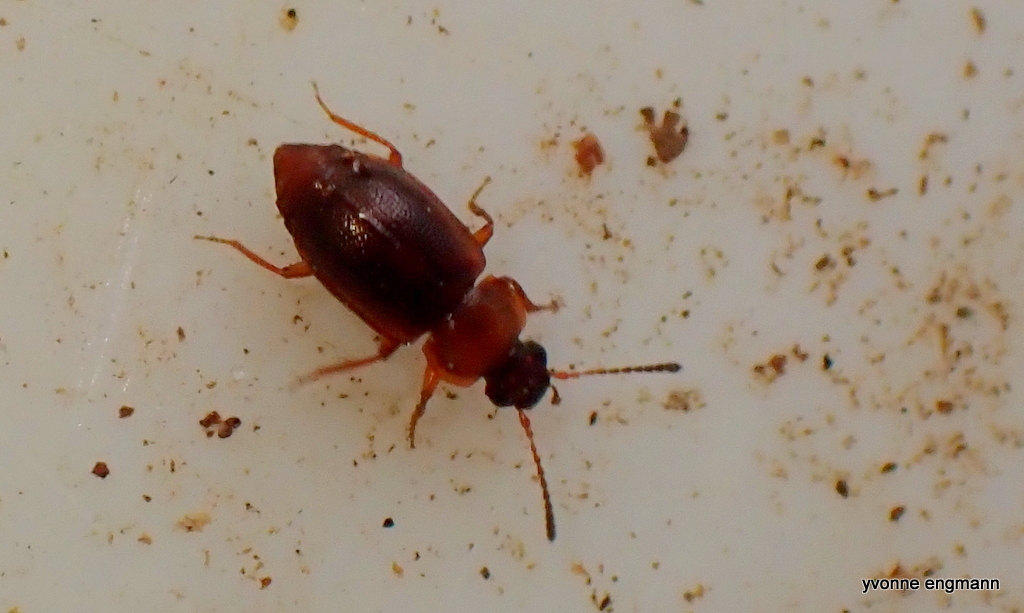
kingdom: Animalia
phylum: Arthropoda
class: Insecta
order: Coleoptera
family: Staphylinidae
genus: Anthobium
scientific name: Anthobium atrocephalum
